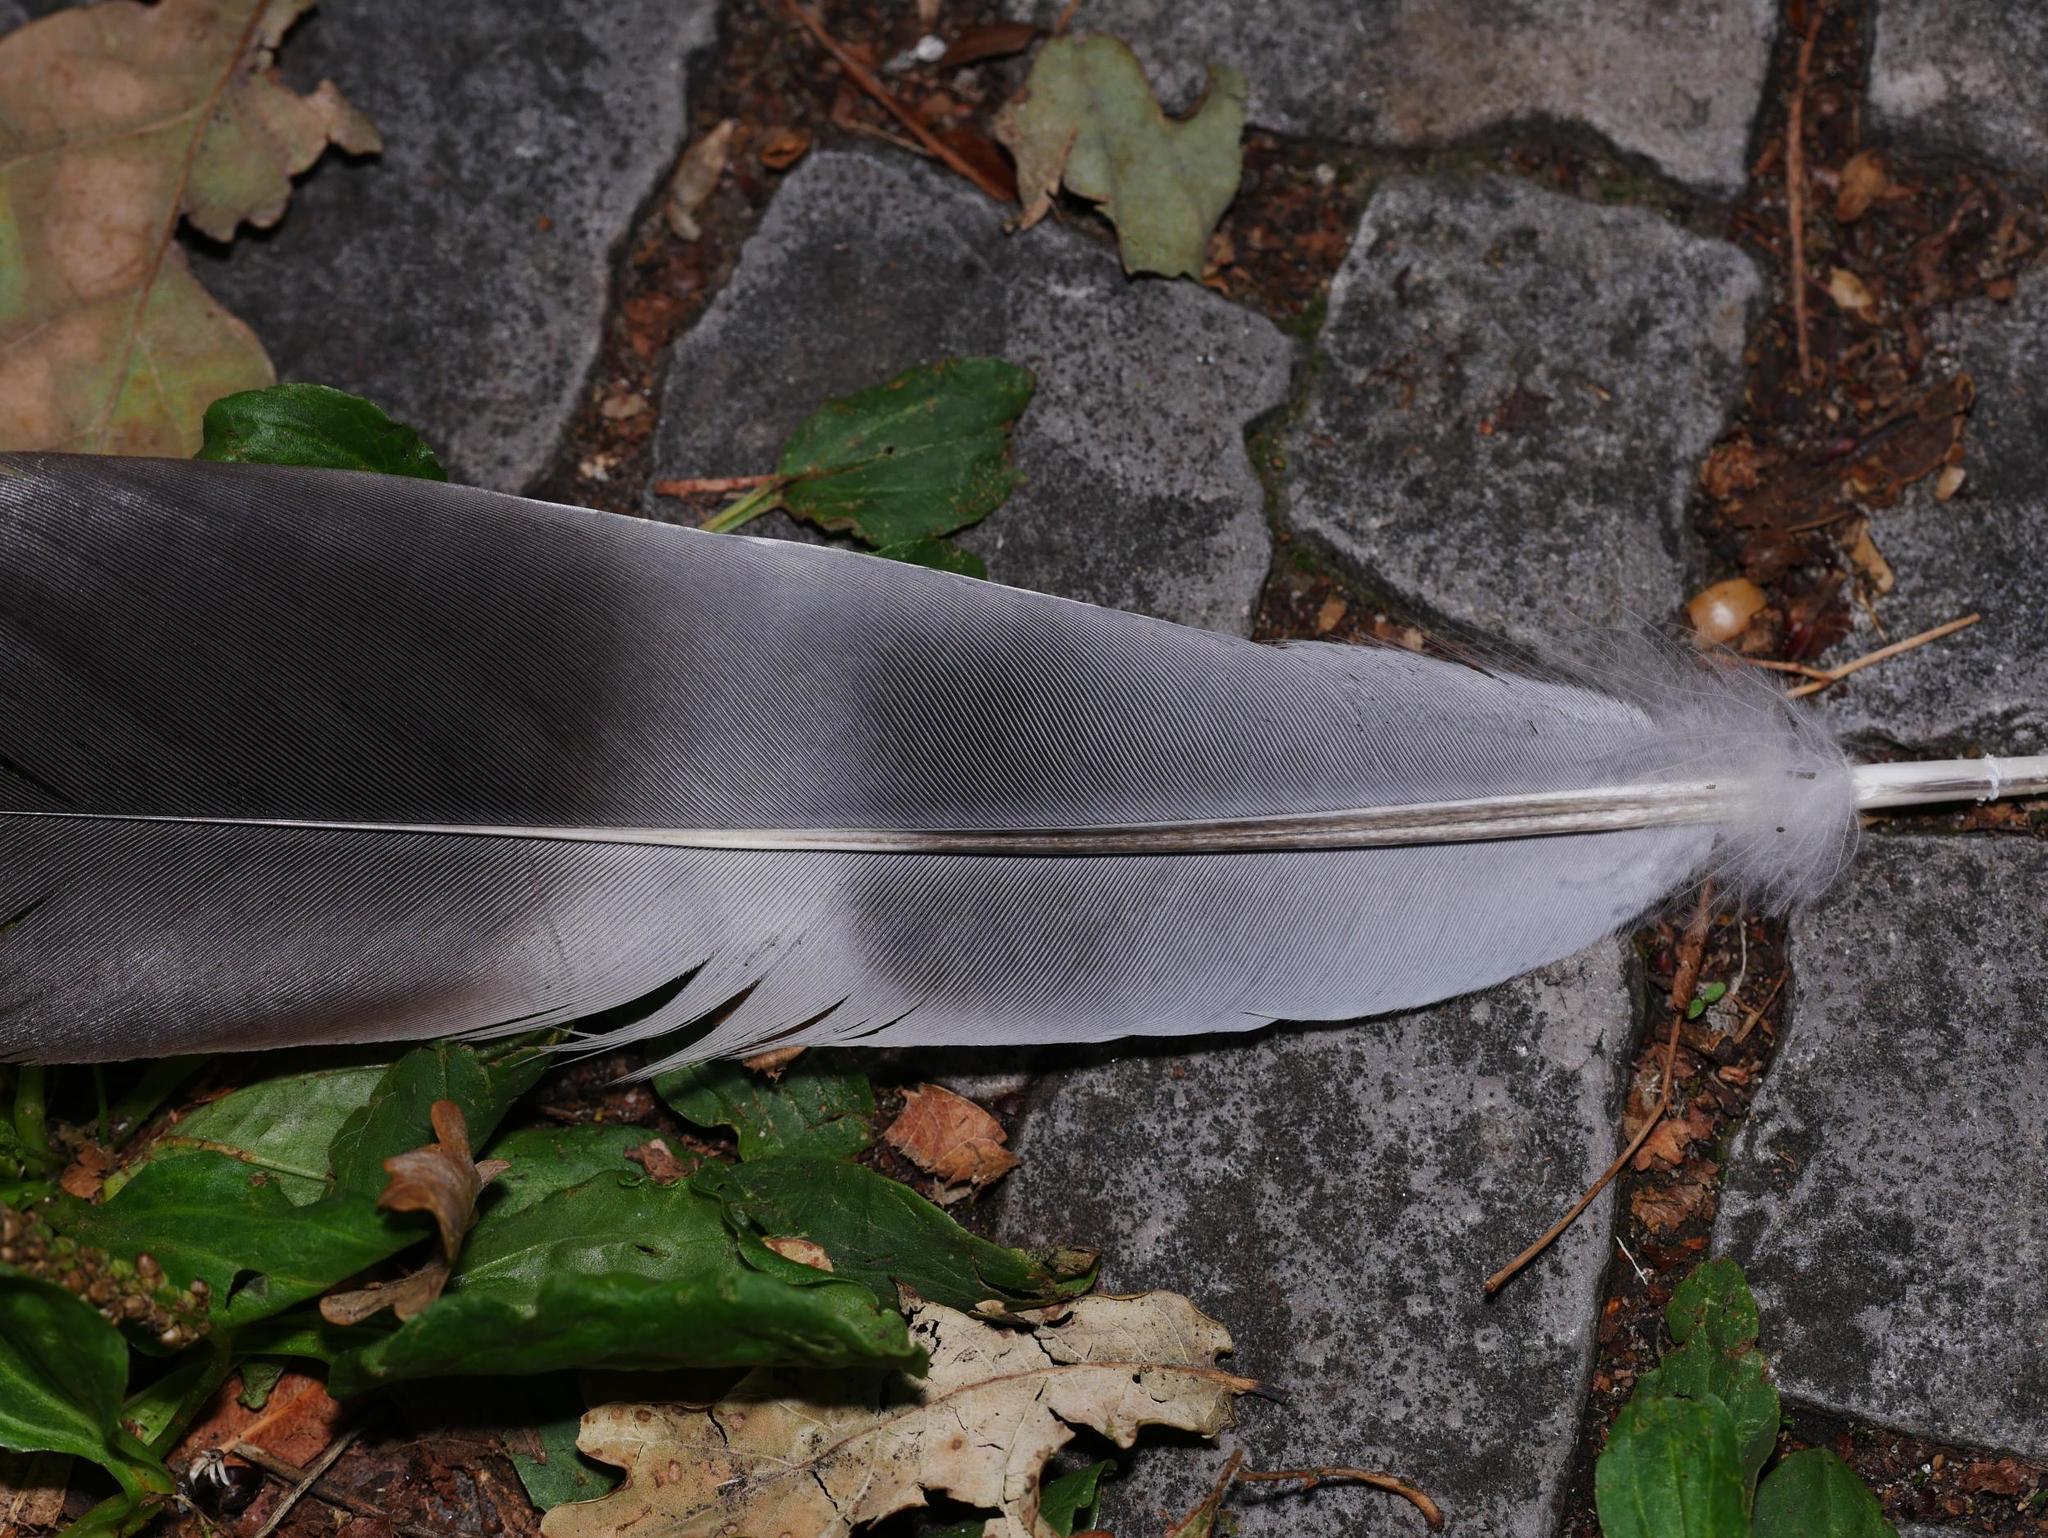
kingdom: Animalia
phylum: Chordata
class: Aves
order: Columbiformes
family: Columbidae
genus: Columba
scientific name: Columba palumbus
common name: Common wood pigeon
